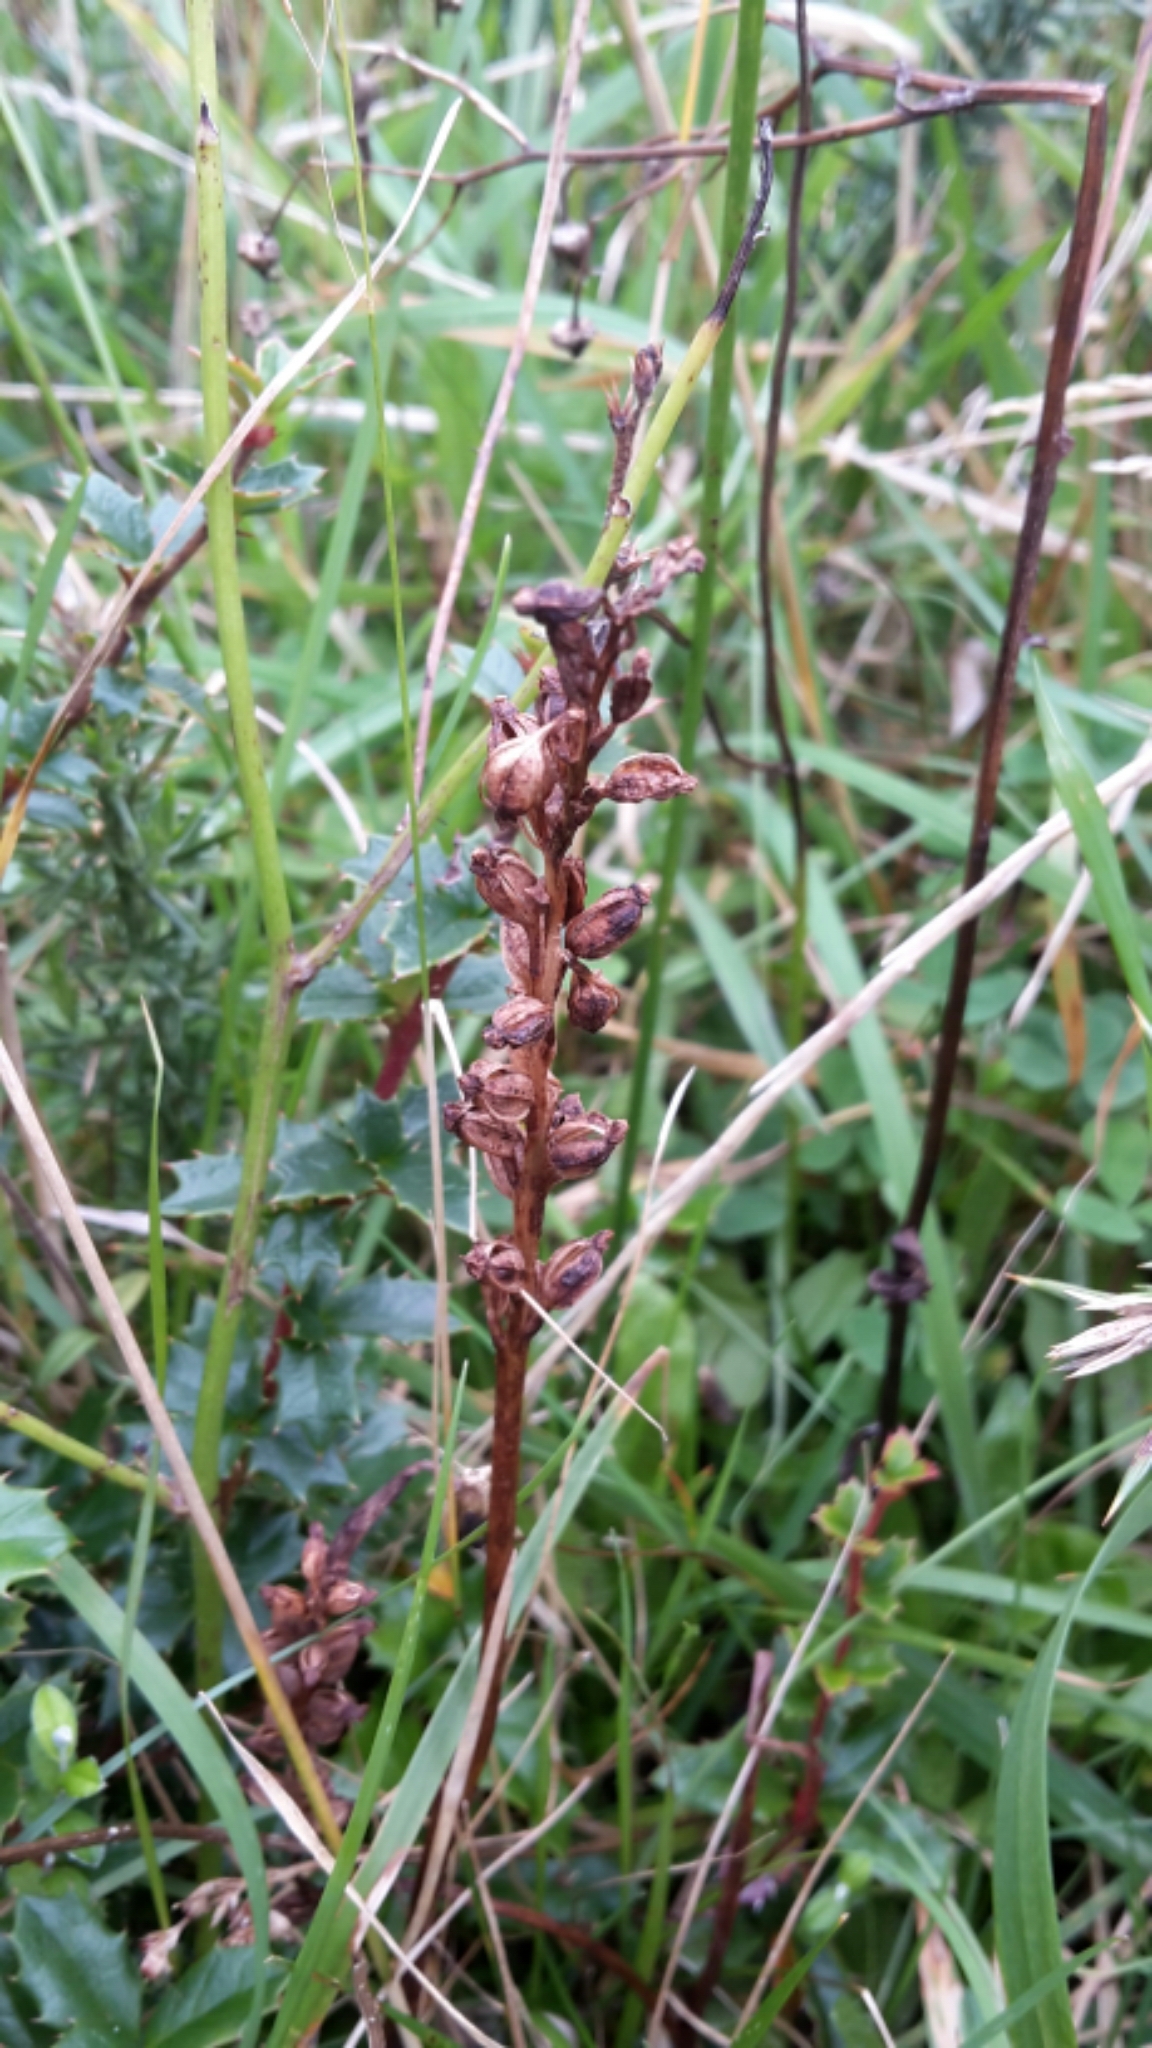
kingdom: Plantae
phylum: Tracheophyta
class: Liliopsida
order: Asparagales
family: Orchidaceae
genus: Microtis
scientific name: Microtis unifolia
